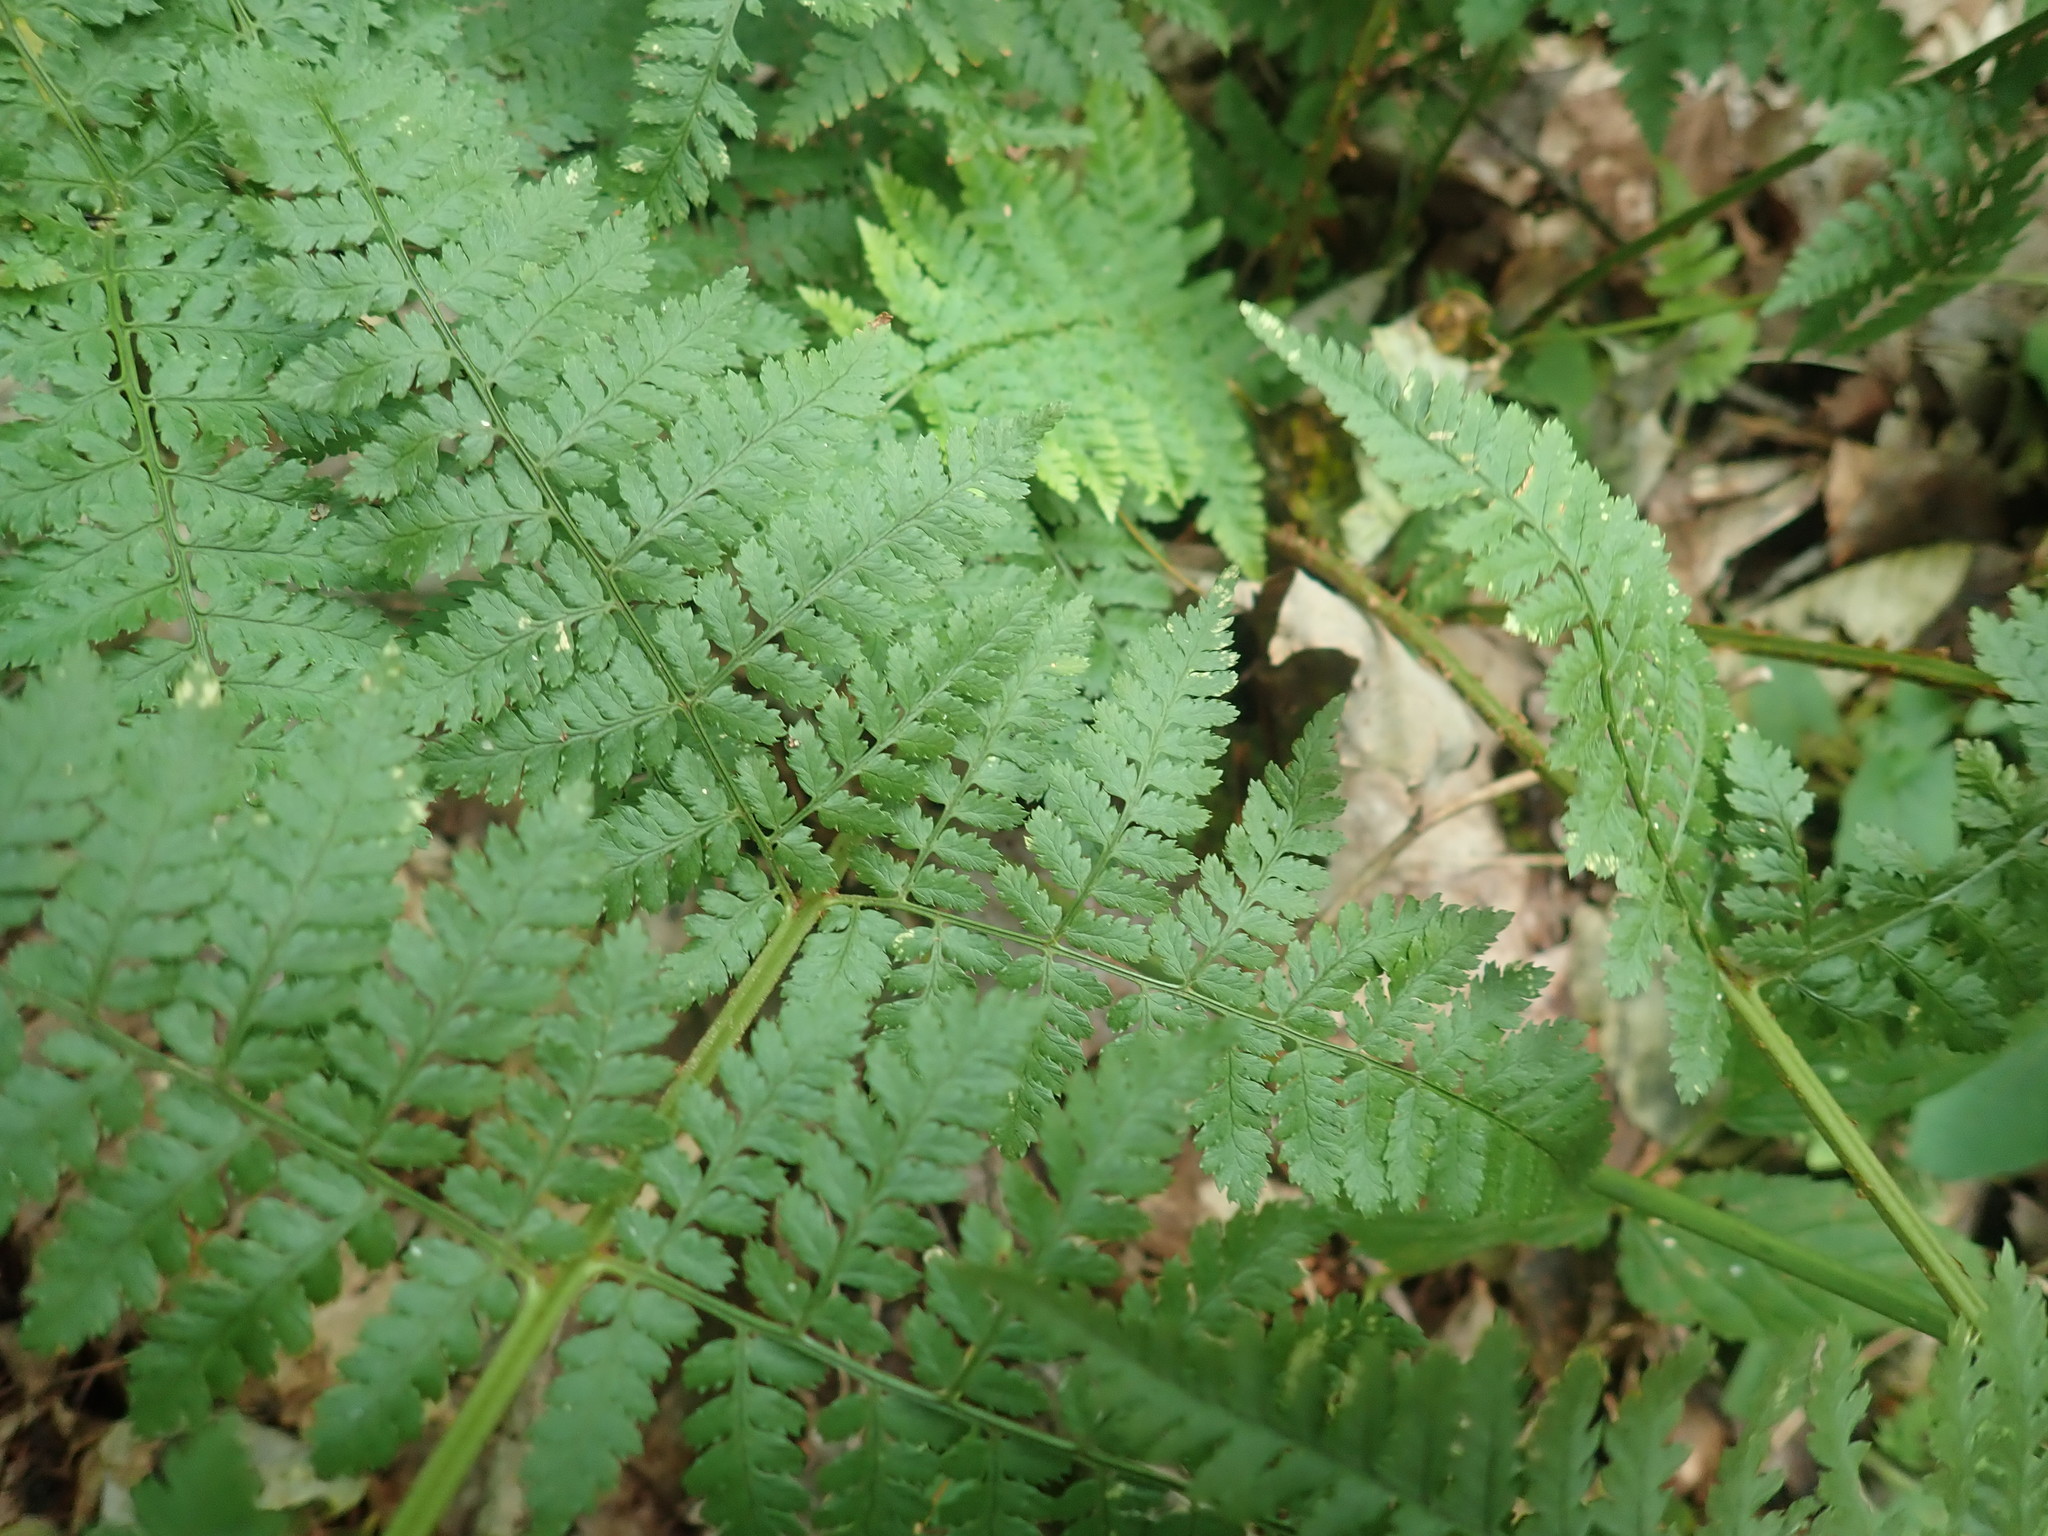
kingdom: Plantae
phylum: Tracheophyta
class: Polypodiopsida
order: Polypodiales
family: Dryopteridaceae
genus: Dryopteris
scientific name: Dryopteris intermedia
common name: Evergreen wood fern
